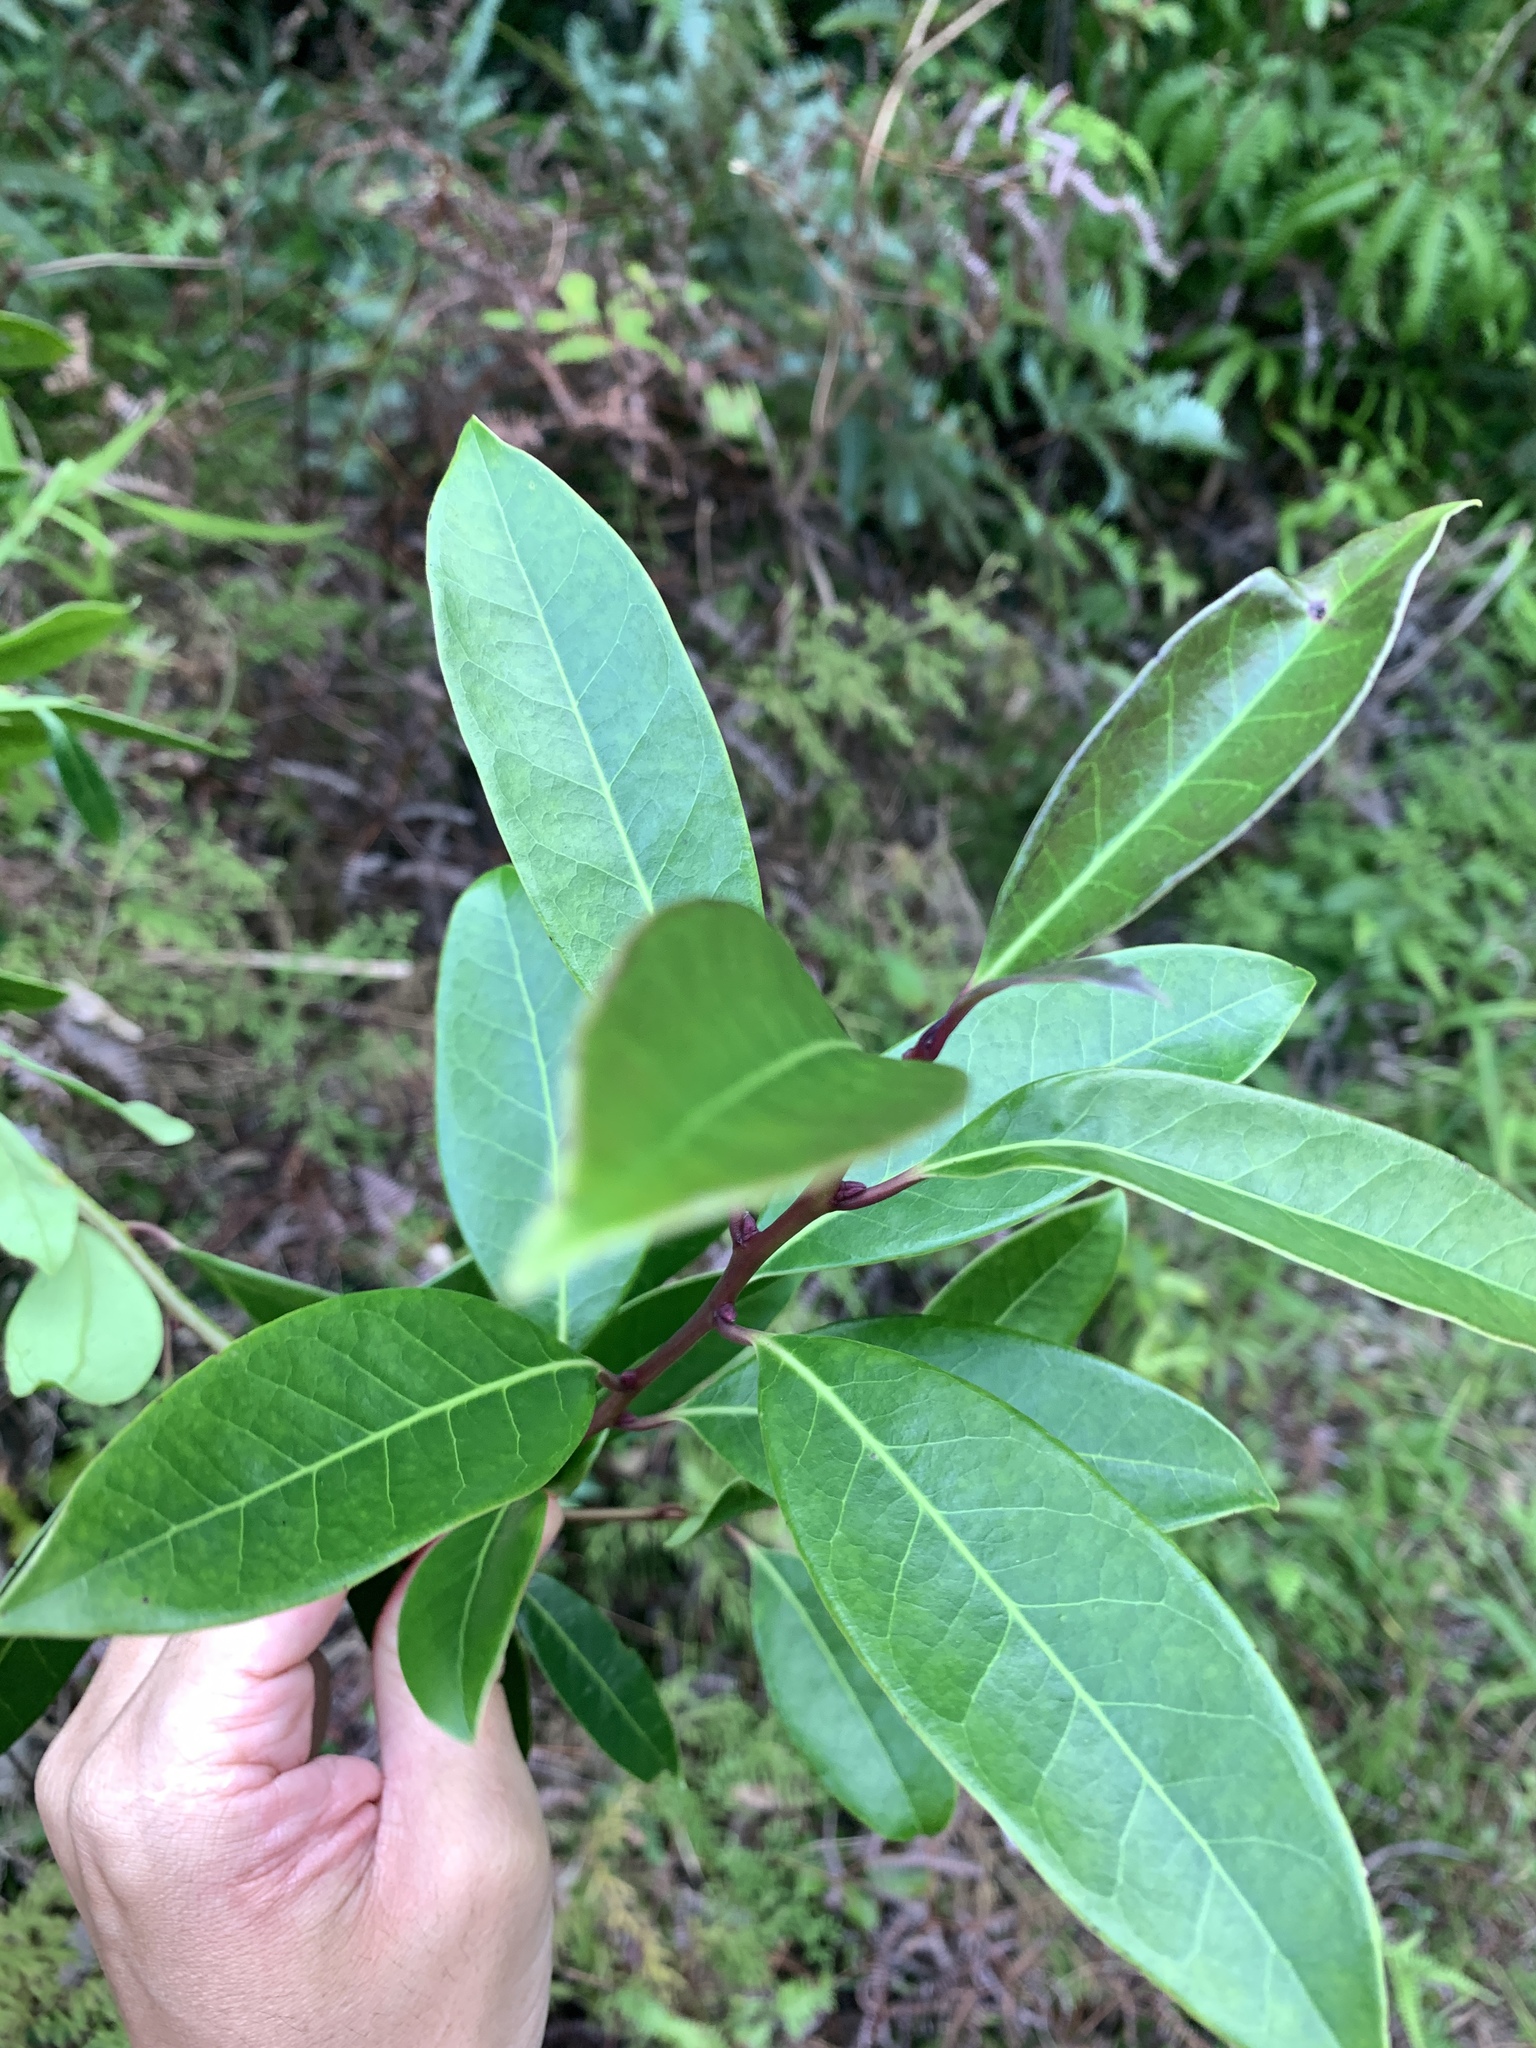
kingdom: Plantae
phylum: Tracheophyta
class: Magnoliopsida
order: Aquifoliales
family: Aquifoliaceae
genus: Ilex
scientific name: Ilex rotunda
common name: Kurogane holly
